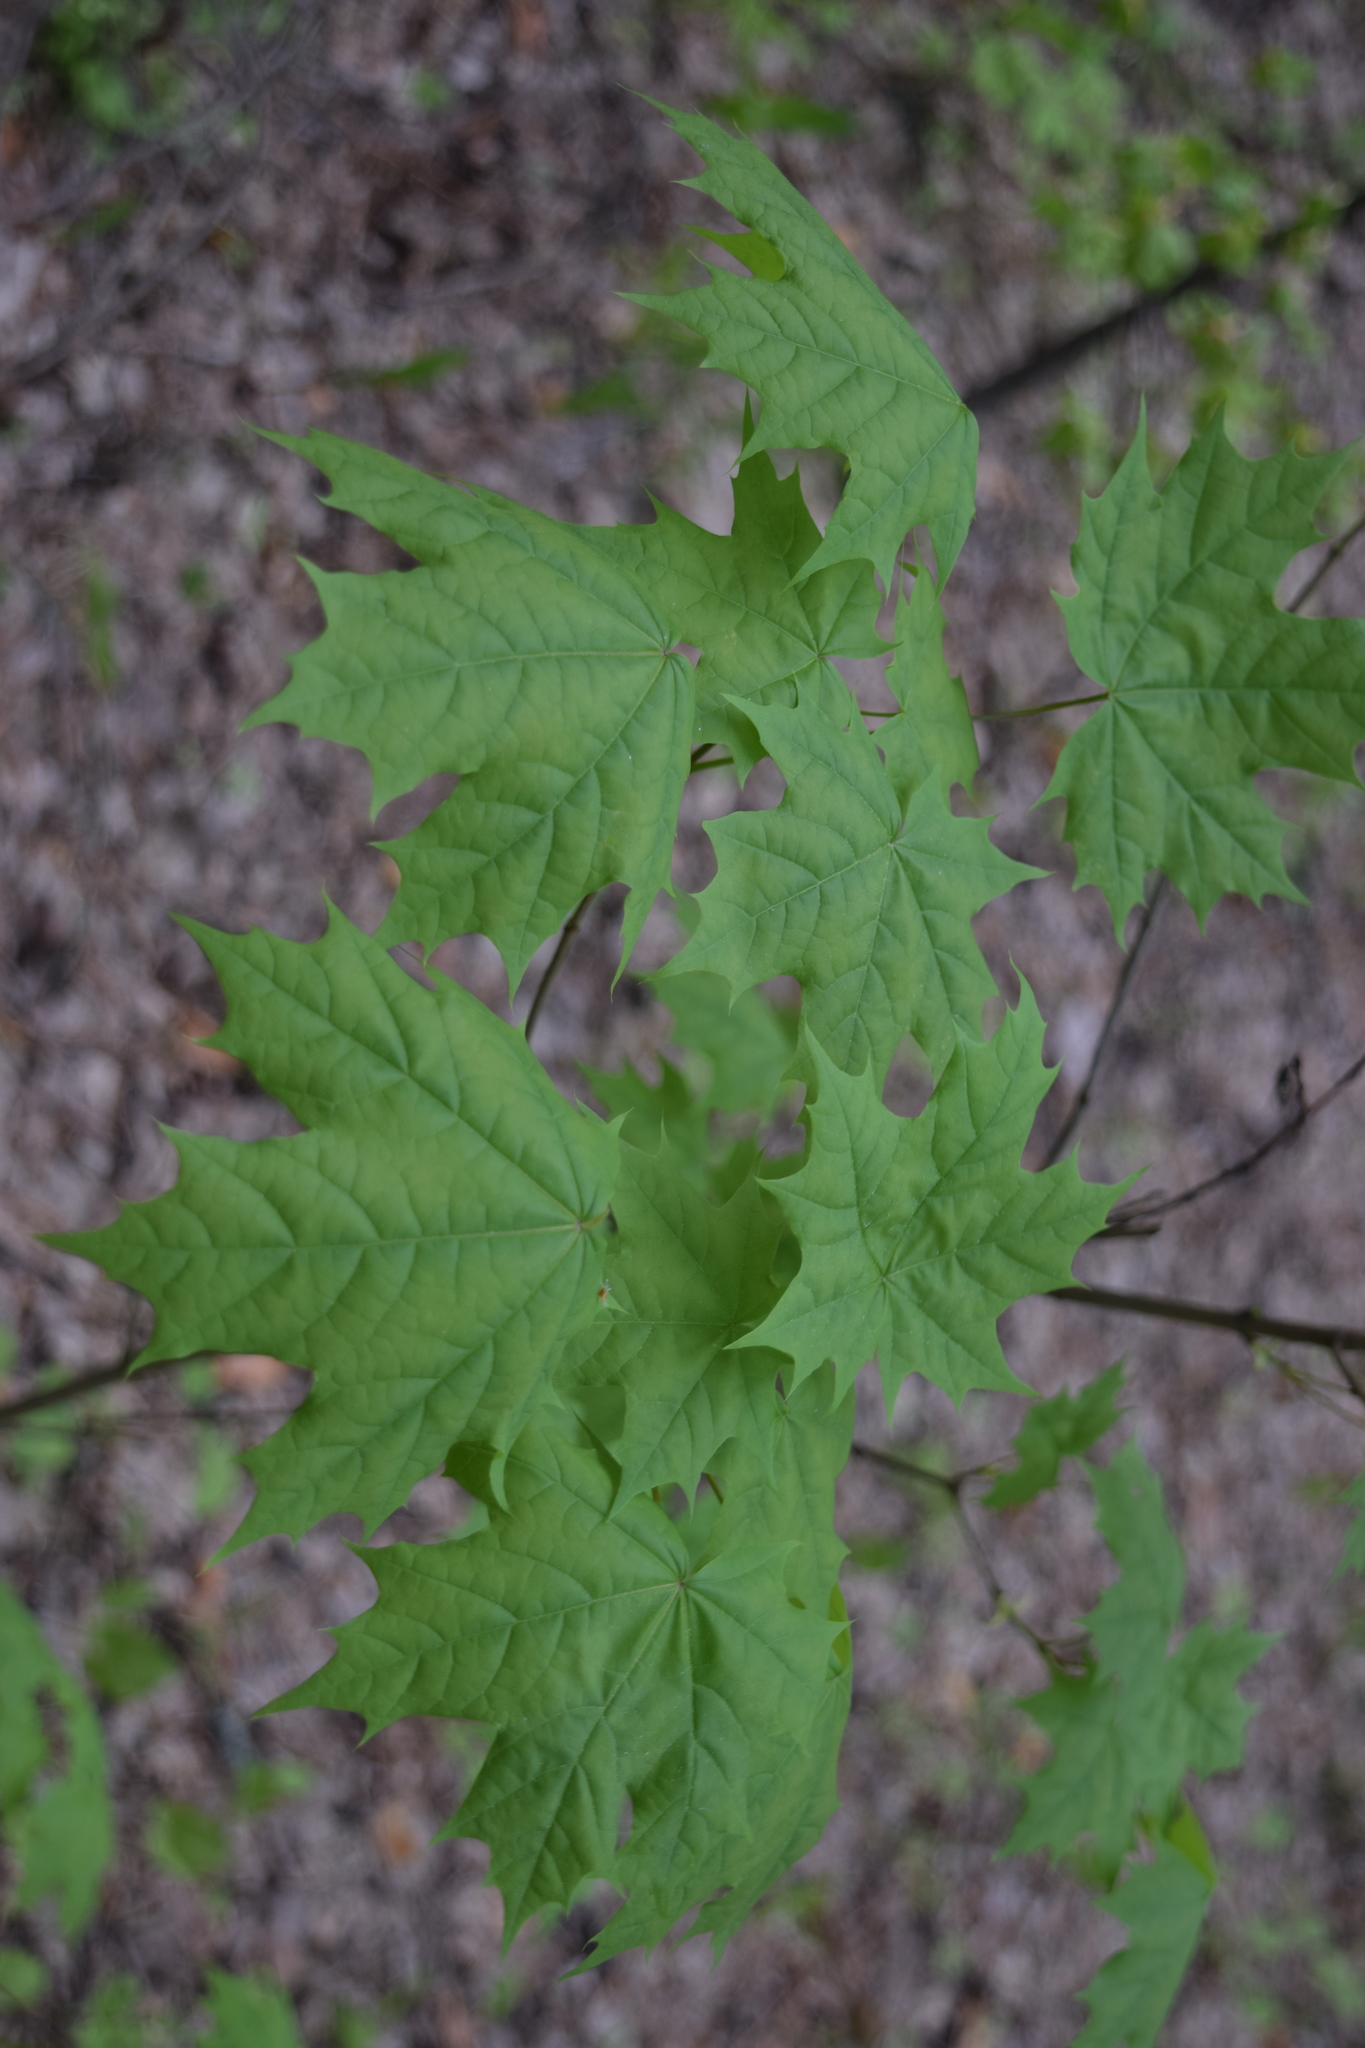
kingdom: Plantae
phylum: Tracheophyta
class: Magnoliopsida
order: Sapindales
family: Sapindaceae
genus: Acer
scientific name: Acer platanoides
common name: Norway maple
